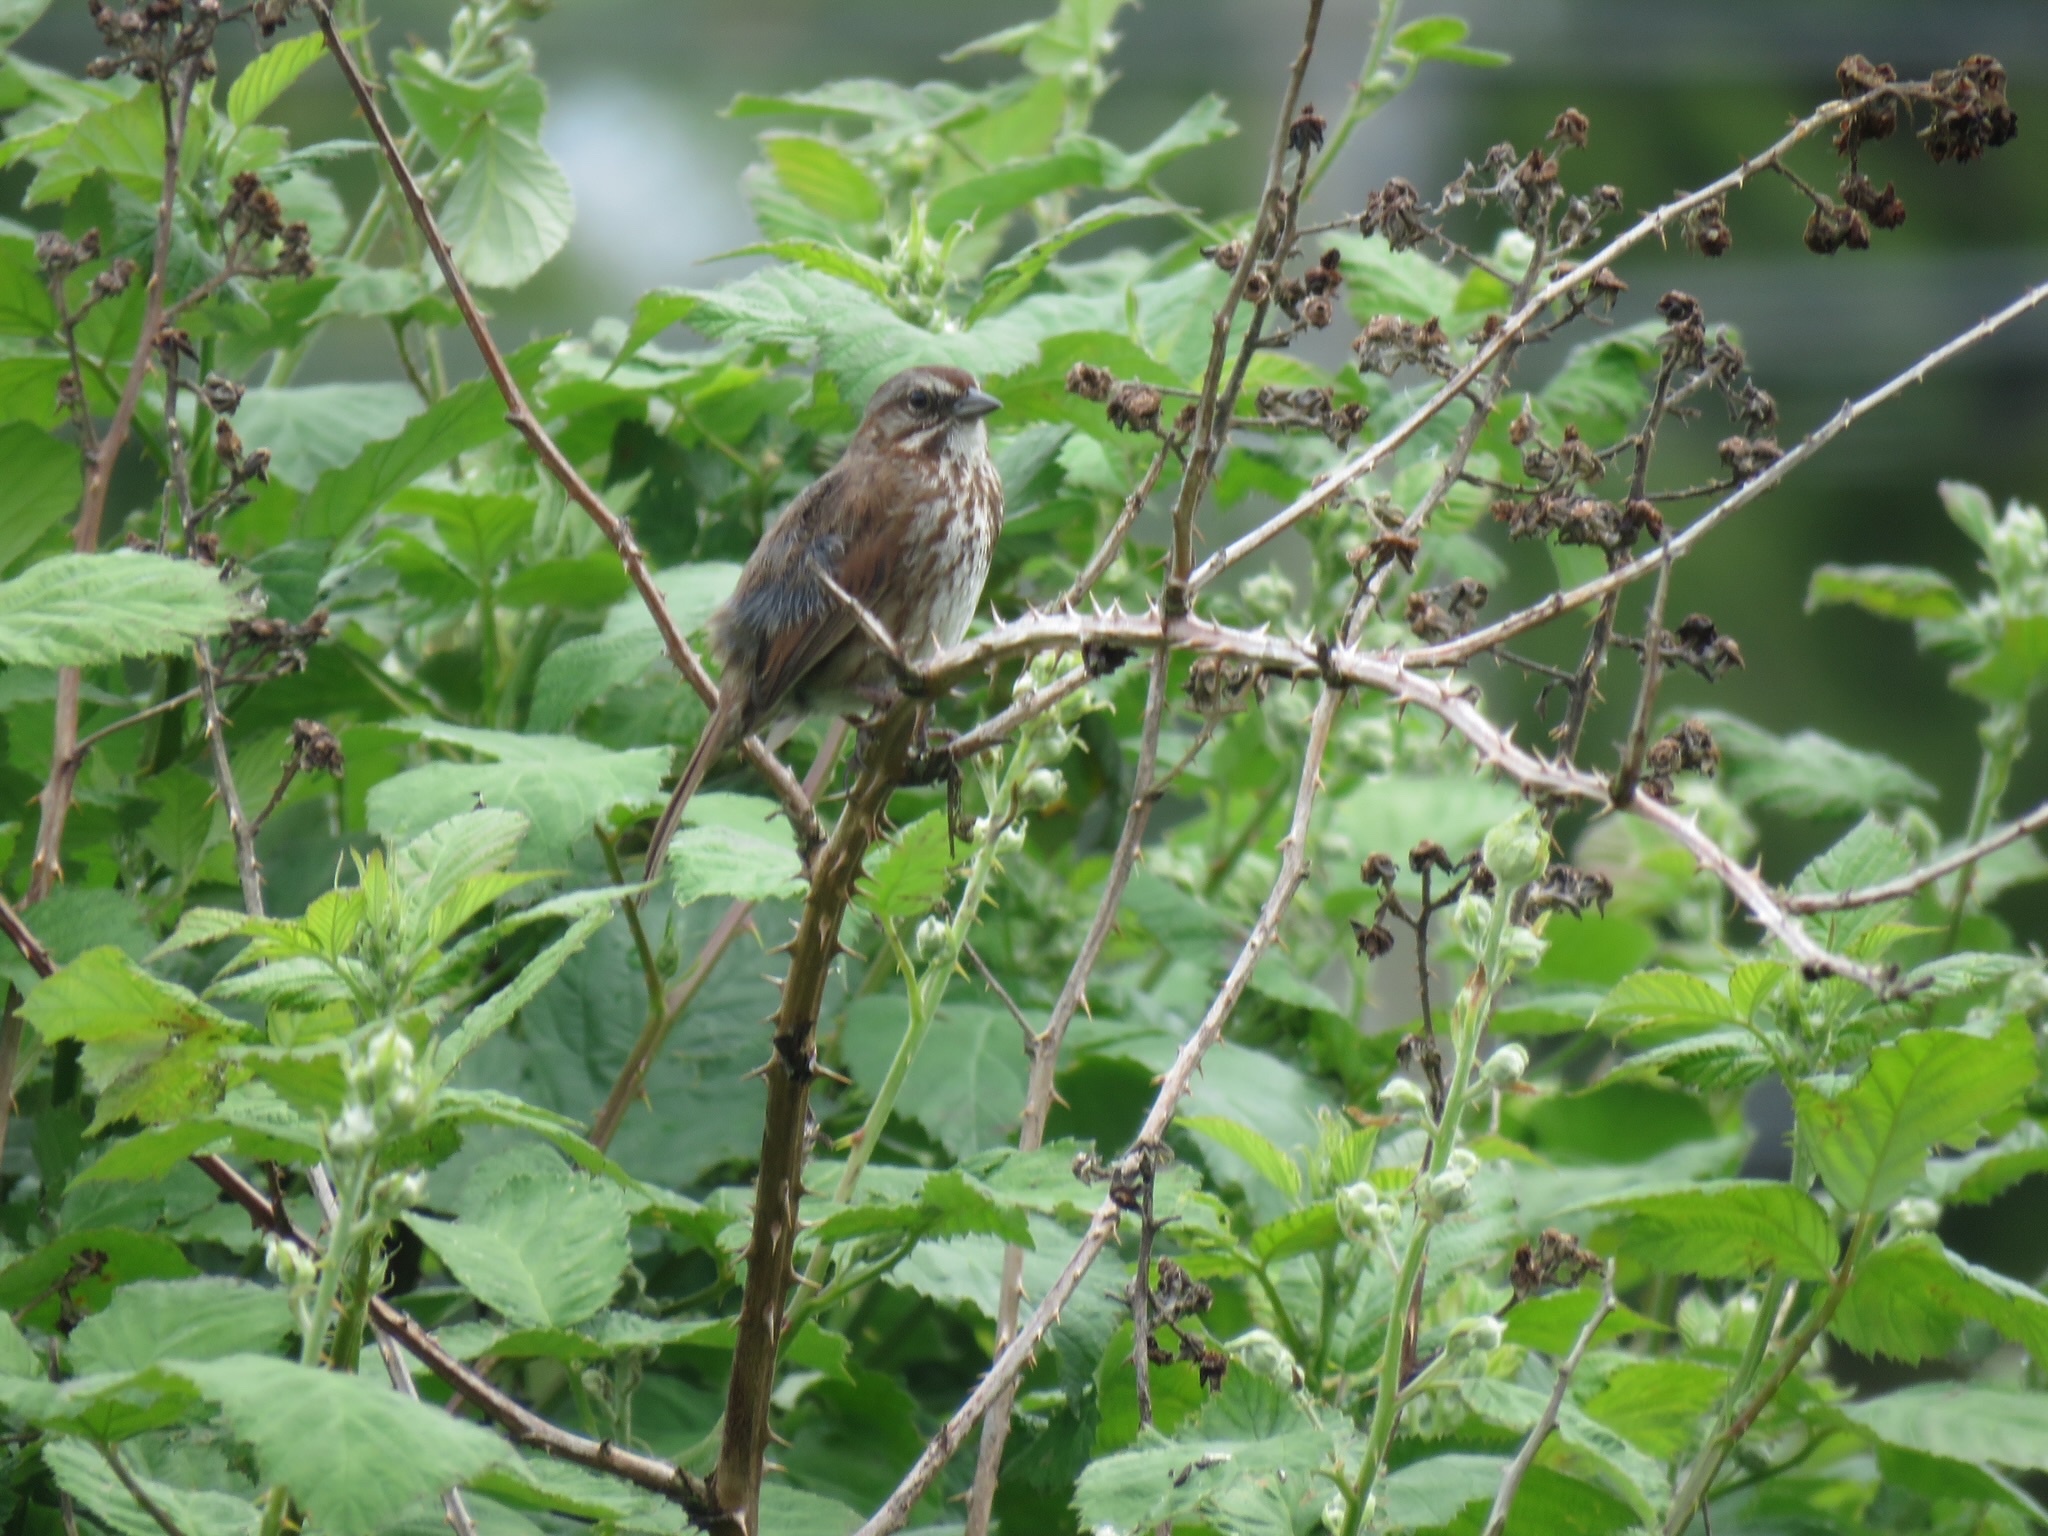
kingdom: Animalia
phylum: Chordata
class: Aves
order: Passeriformes
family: Passerellidae
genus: Melospiza
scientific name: Melospiza melodia
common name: Song sparrow
